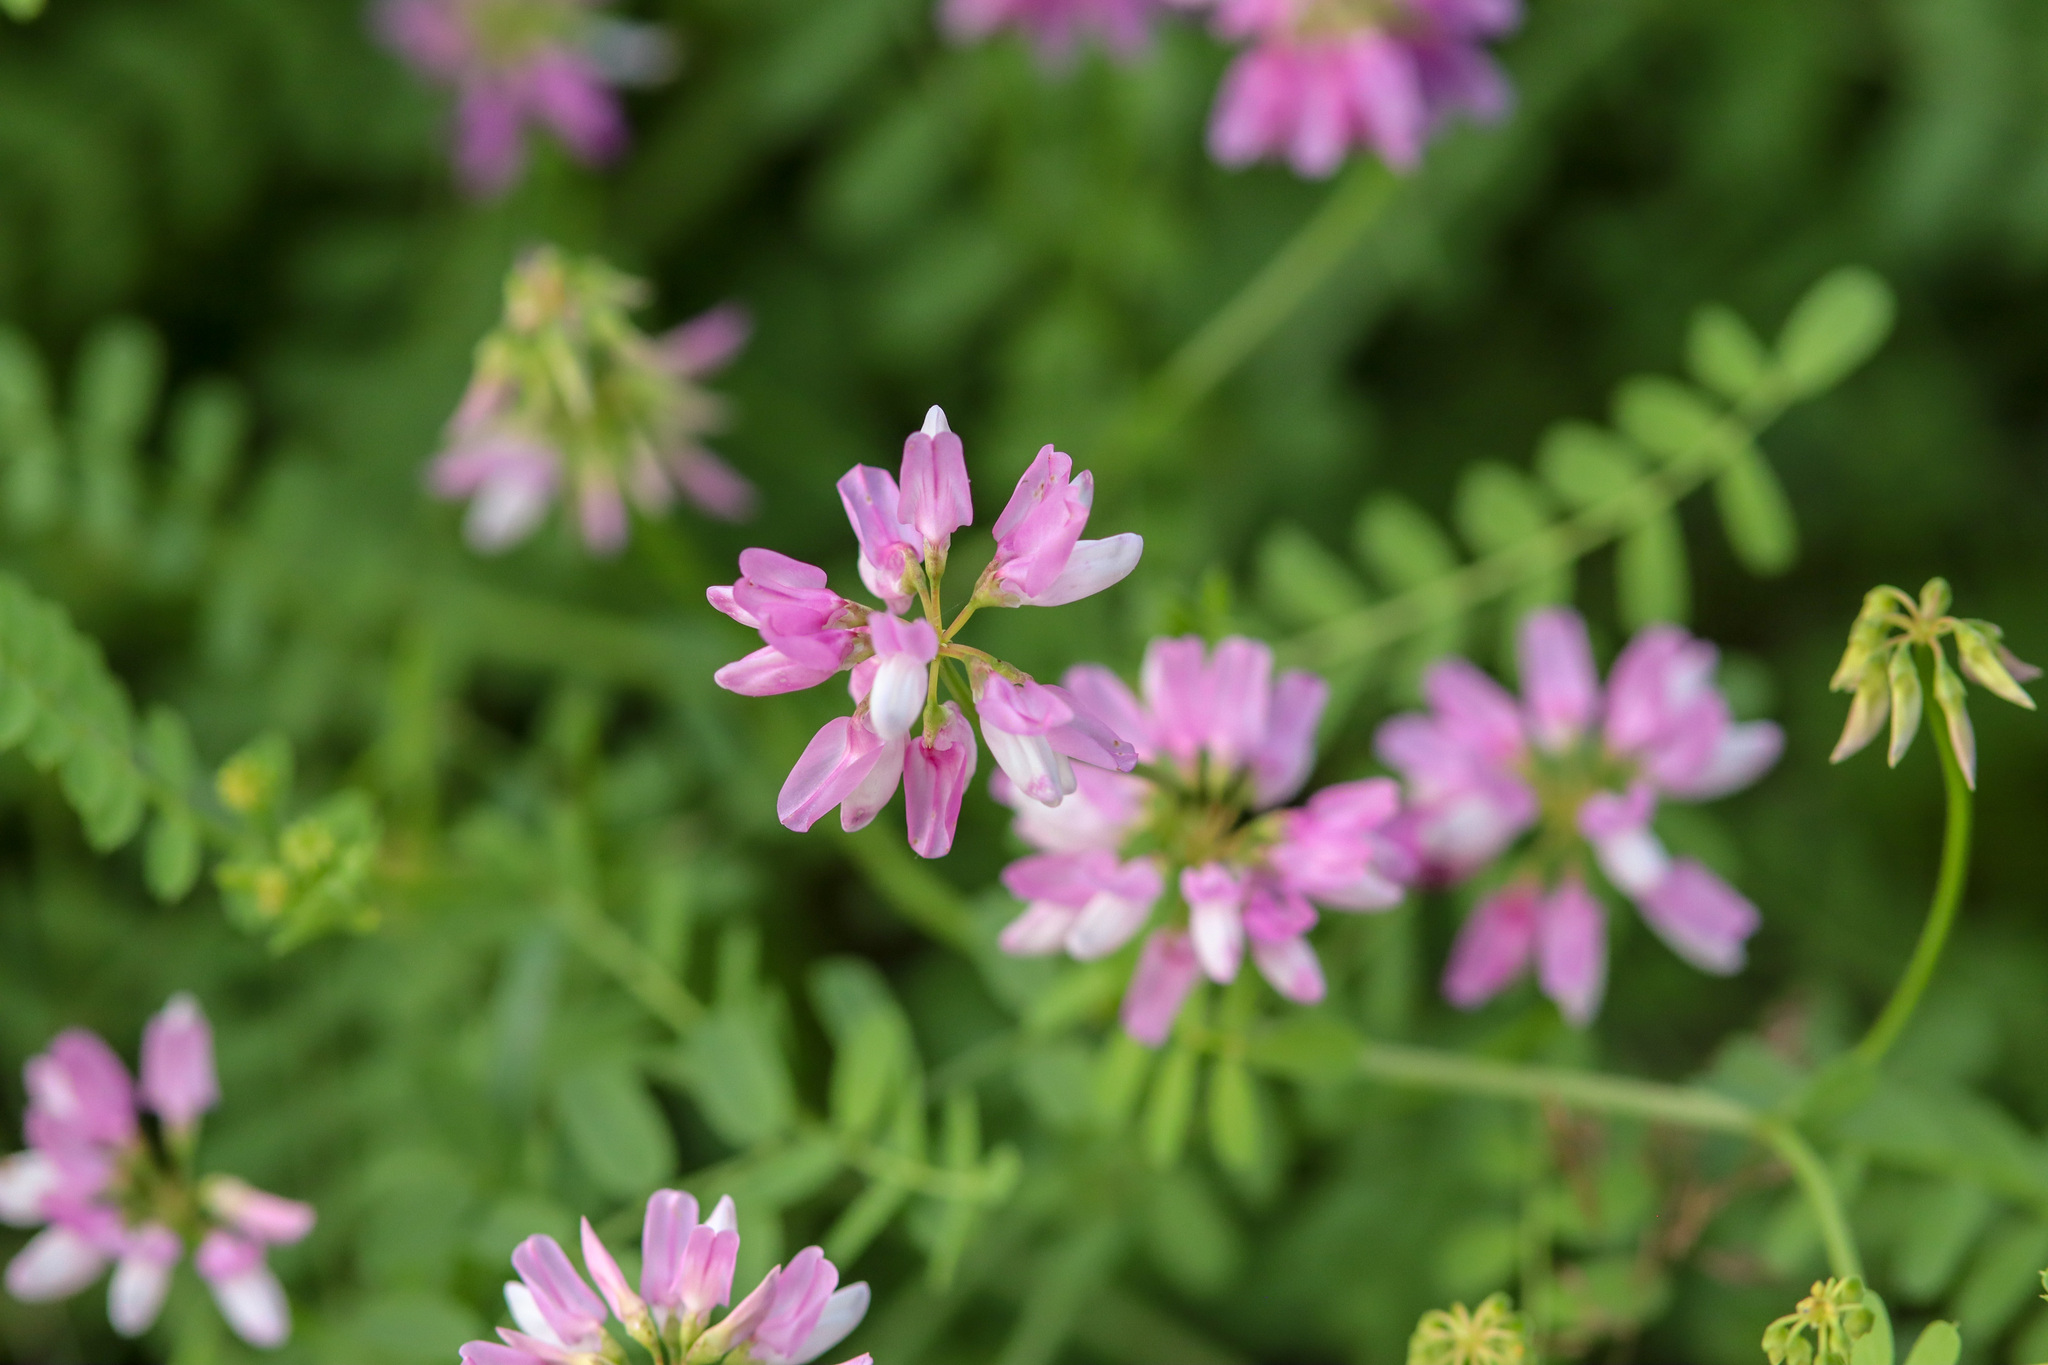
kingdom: Plantae
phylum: Tracheophyta
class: Magnoliopsida
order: Fabales
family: Fabaceae
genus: Coronilla
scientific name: Coronilla varia
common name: Crownvetch
